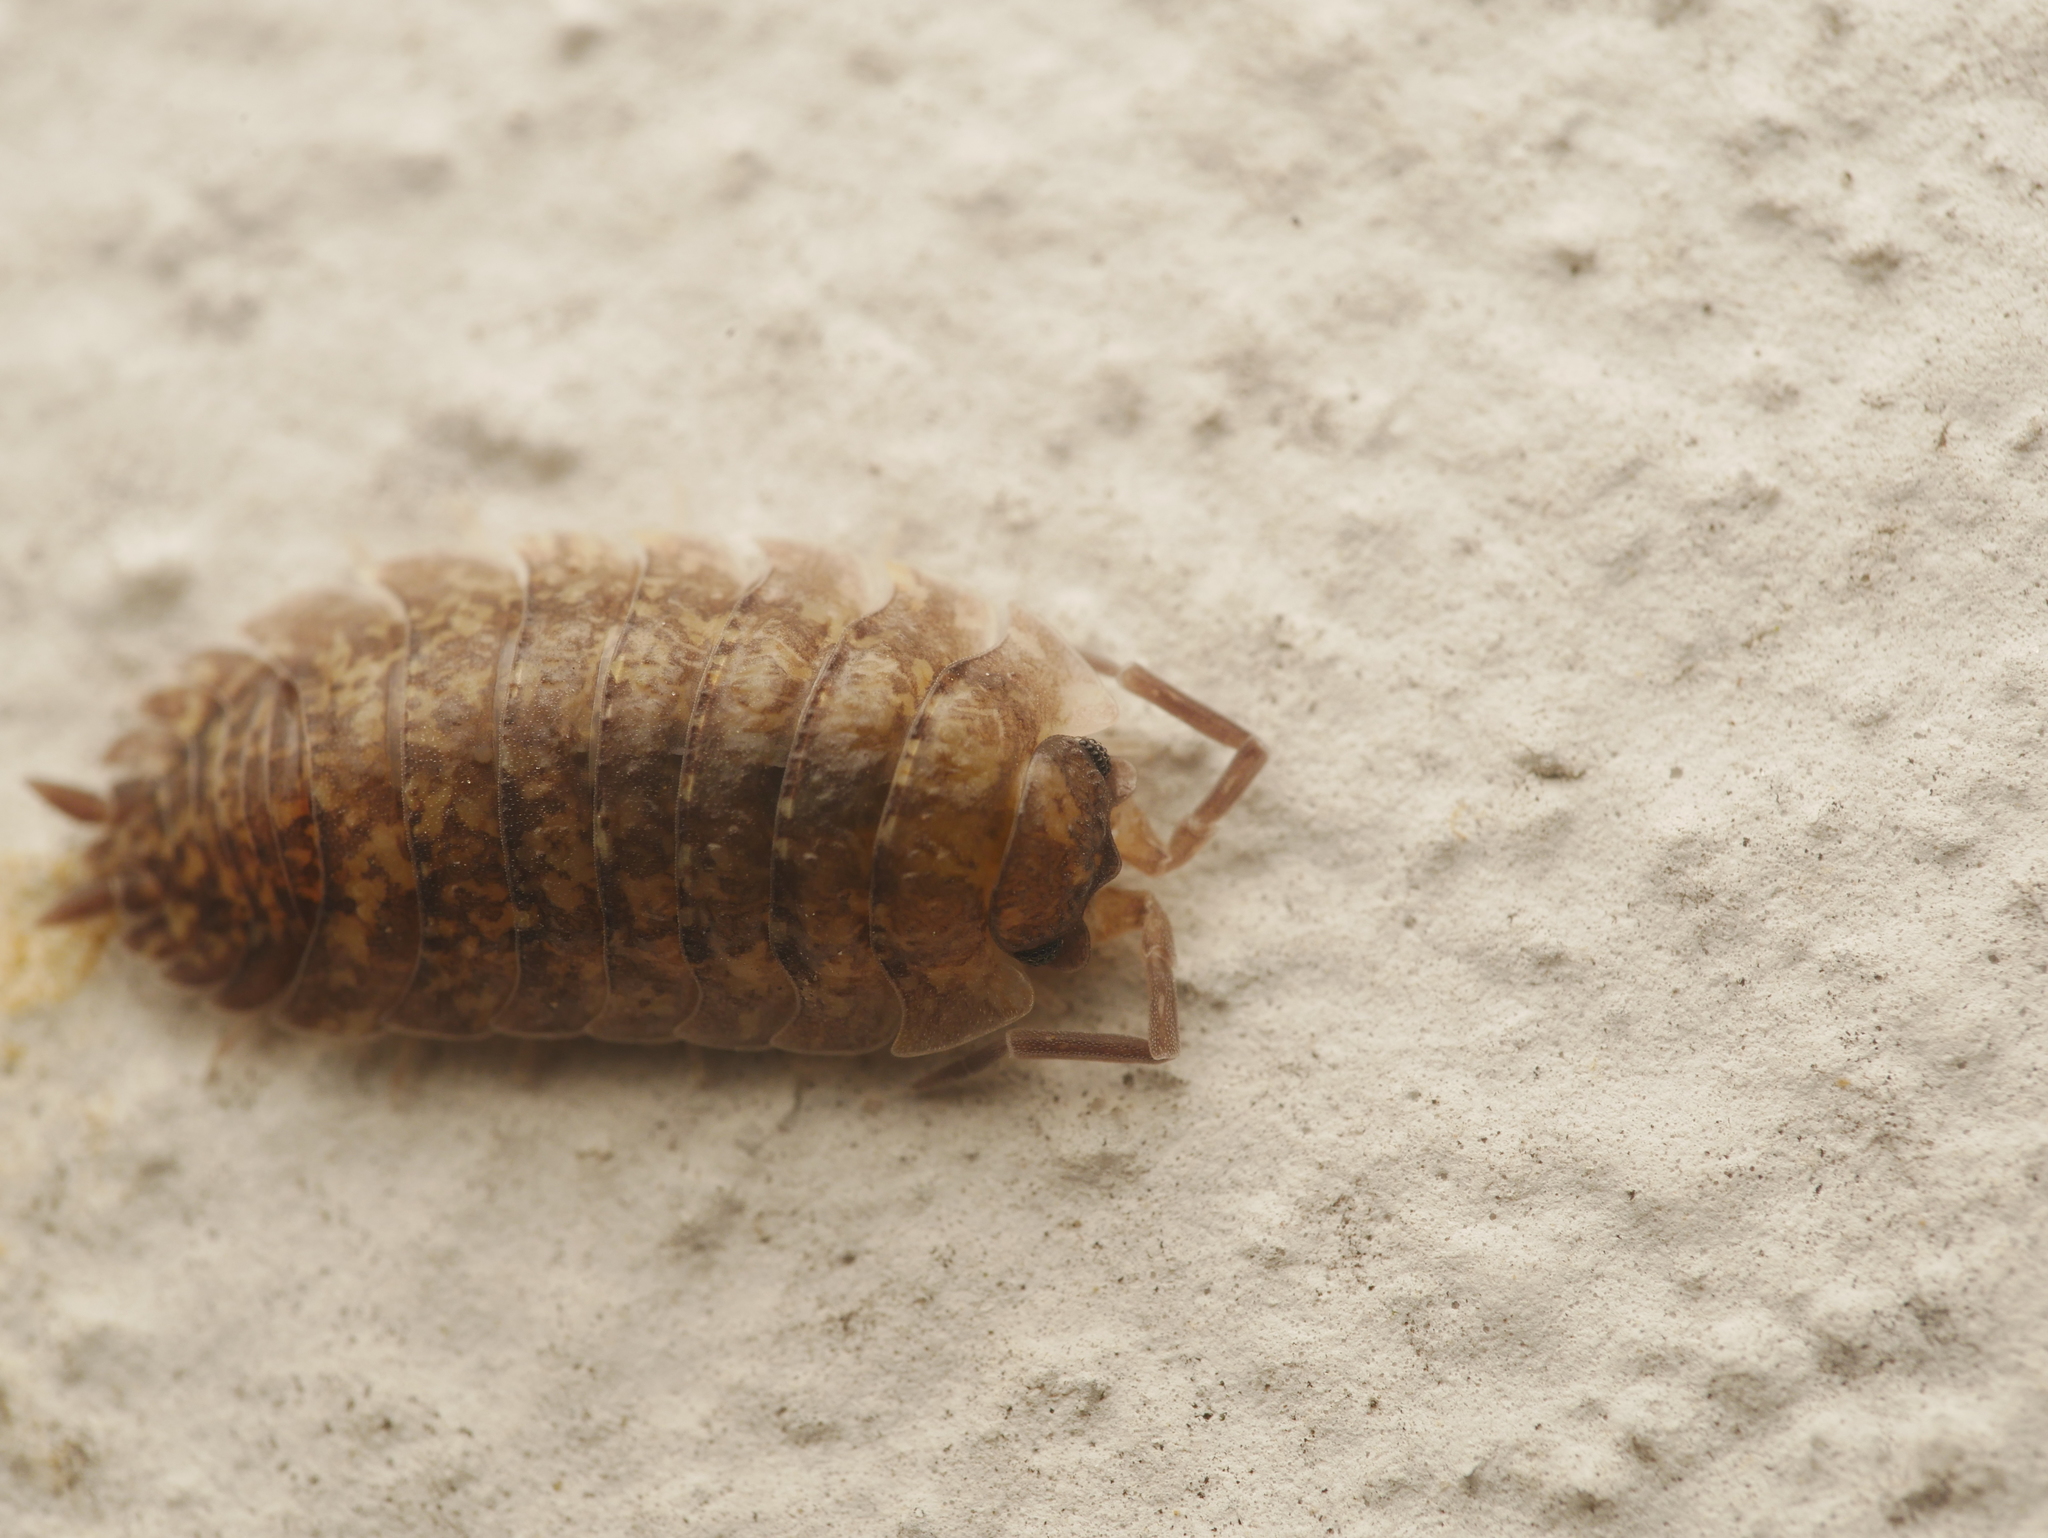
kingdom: Animalia
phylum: Arthropoda
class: Malacostraca
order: Isopoda
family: Porcellionidae
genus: Porcellio
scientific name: Porcellio scaber
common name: Common rough woodlouse
